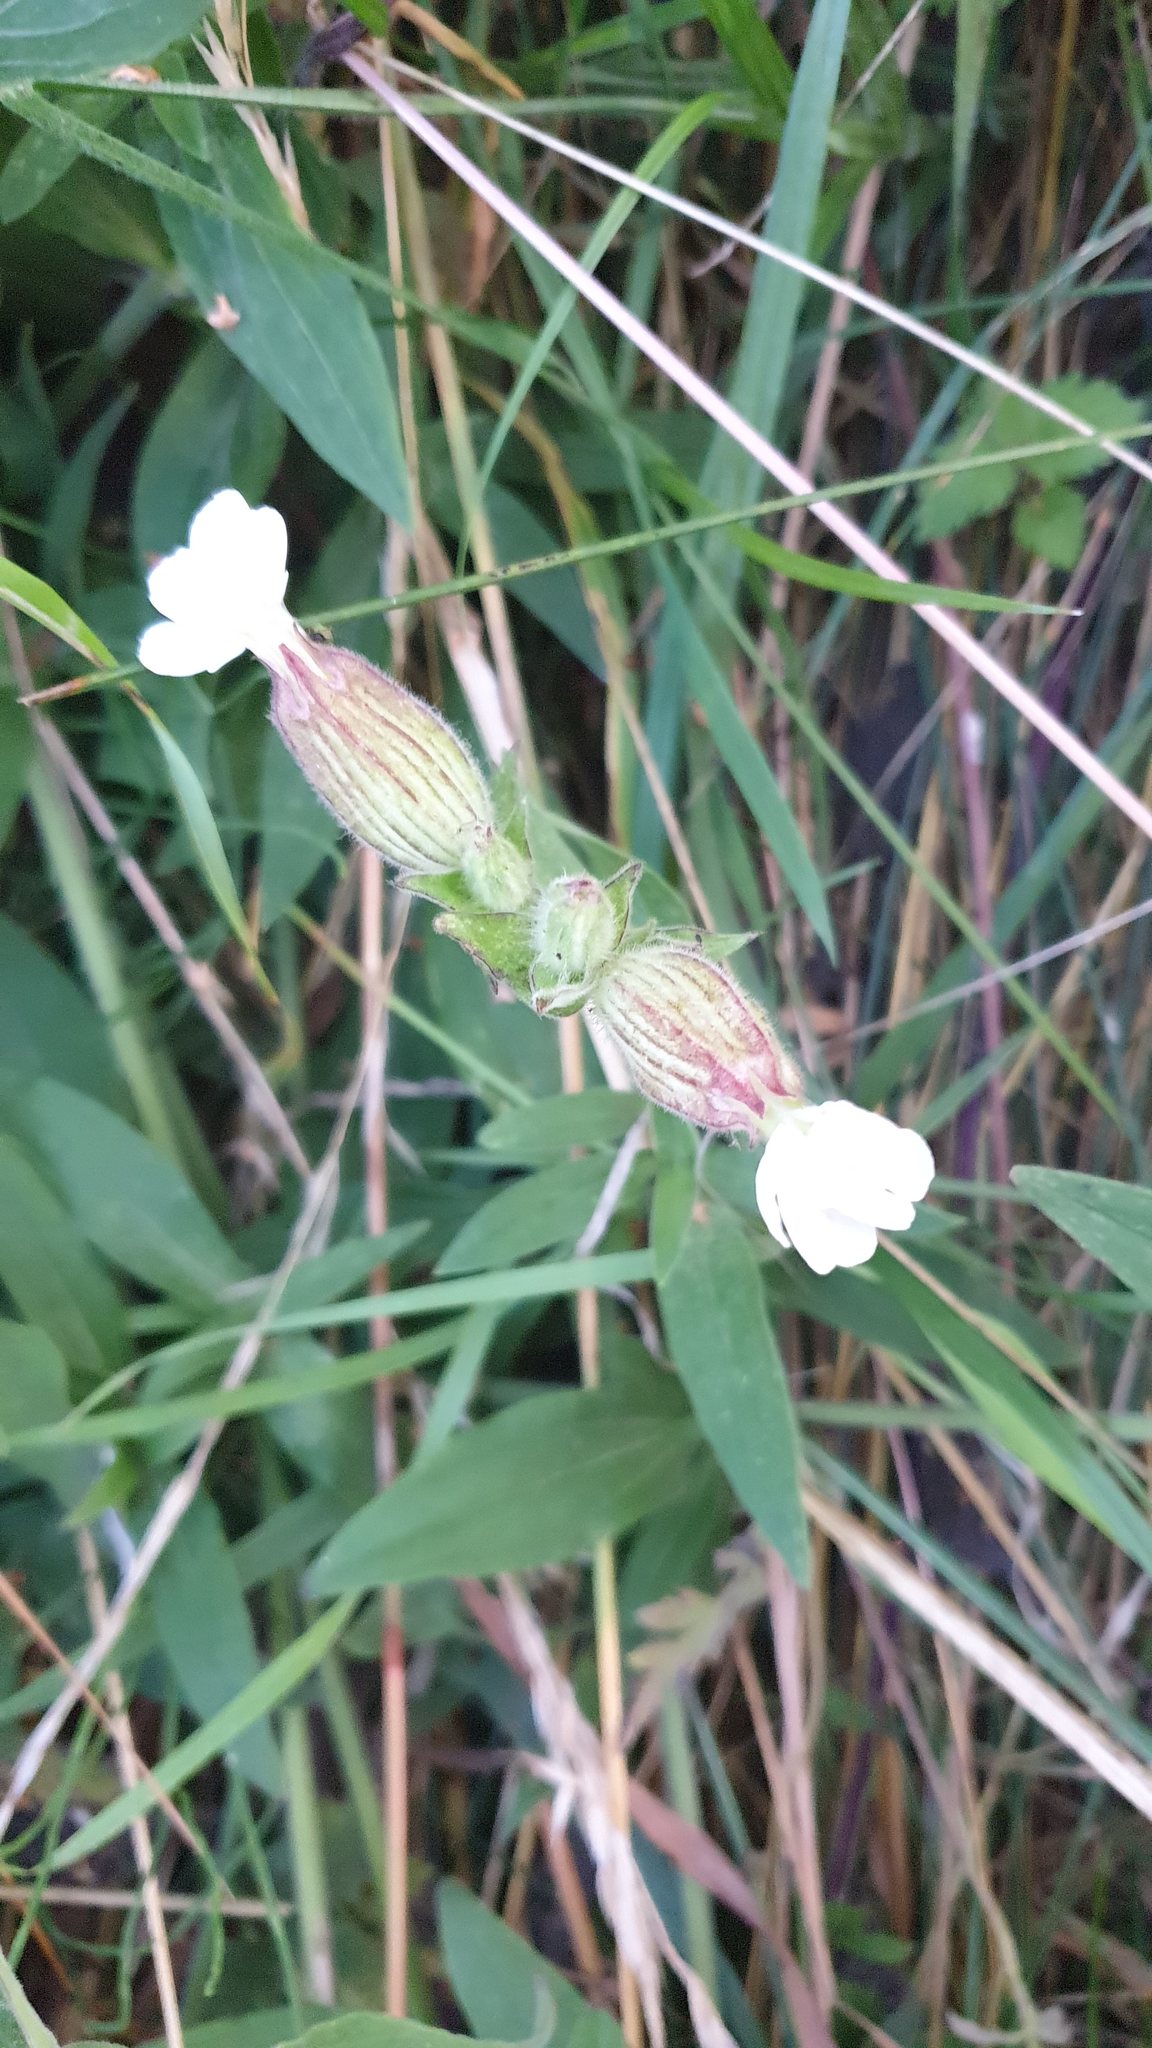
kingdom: Plantae
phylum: Tracheophyta
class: Magnoliopsida
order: Caryophyllales
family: Caryophyllaceae
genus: Silene
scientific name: Silene latifolia
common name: White campion
